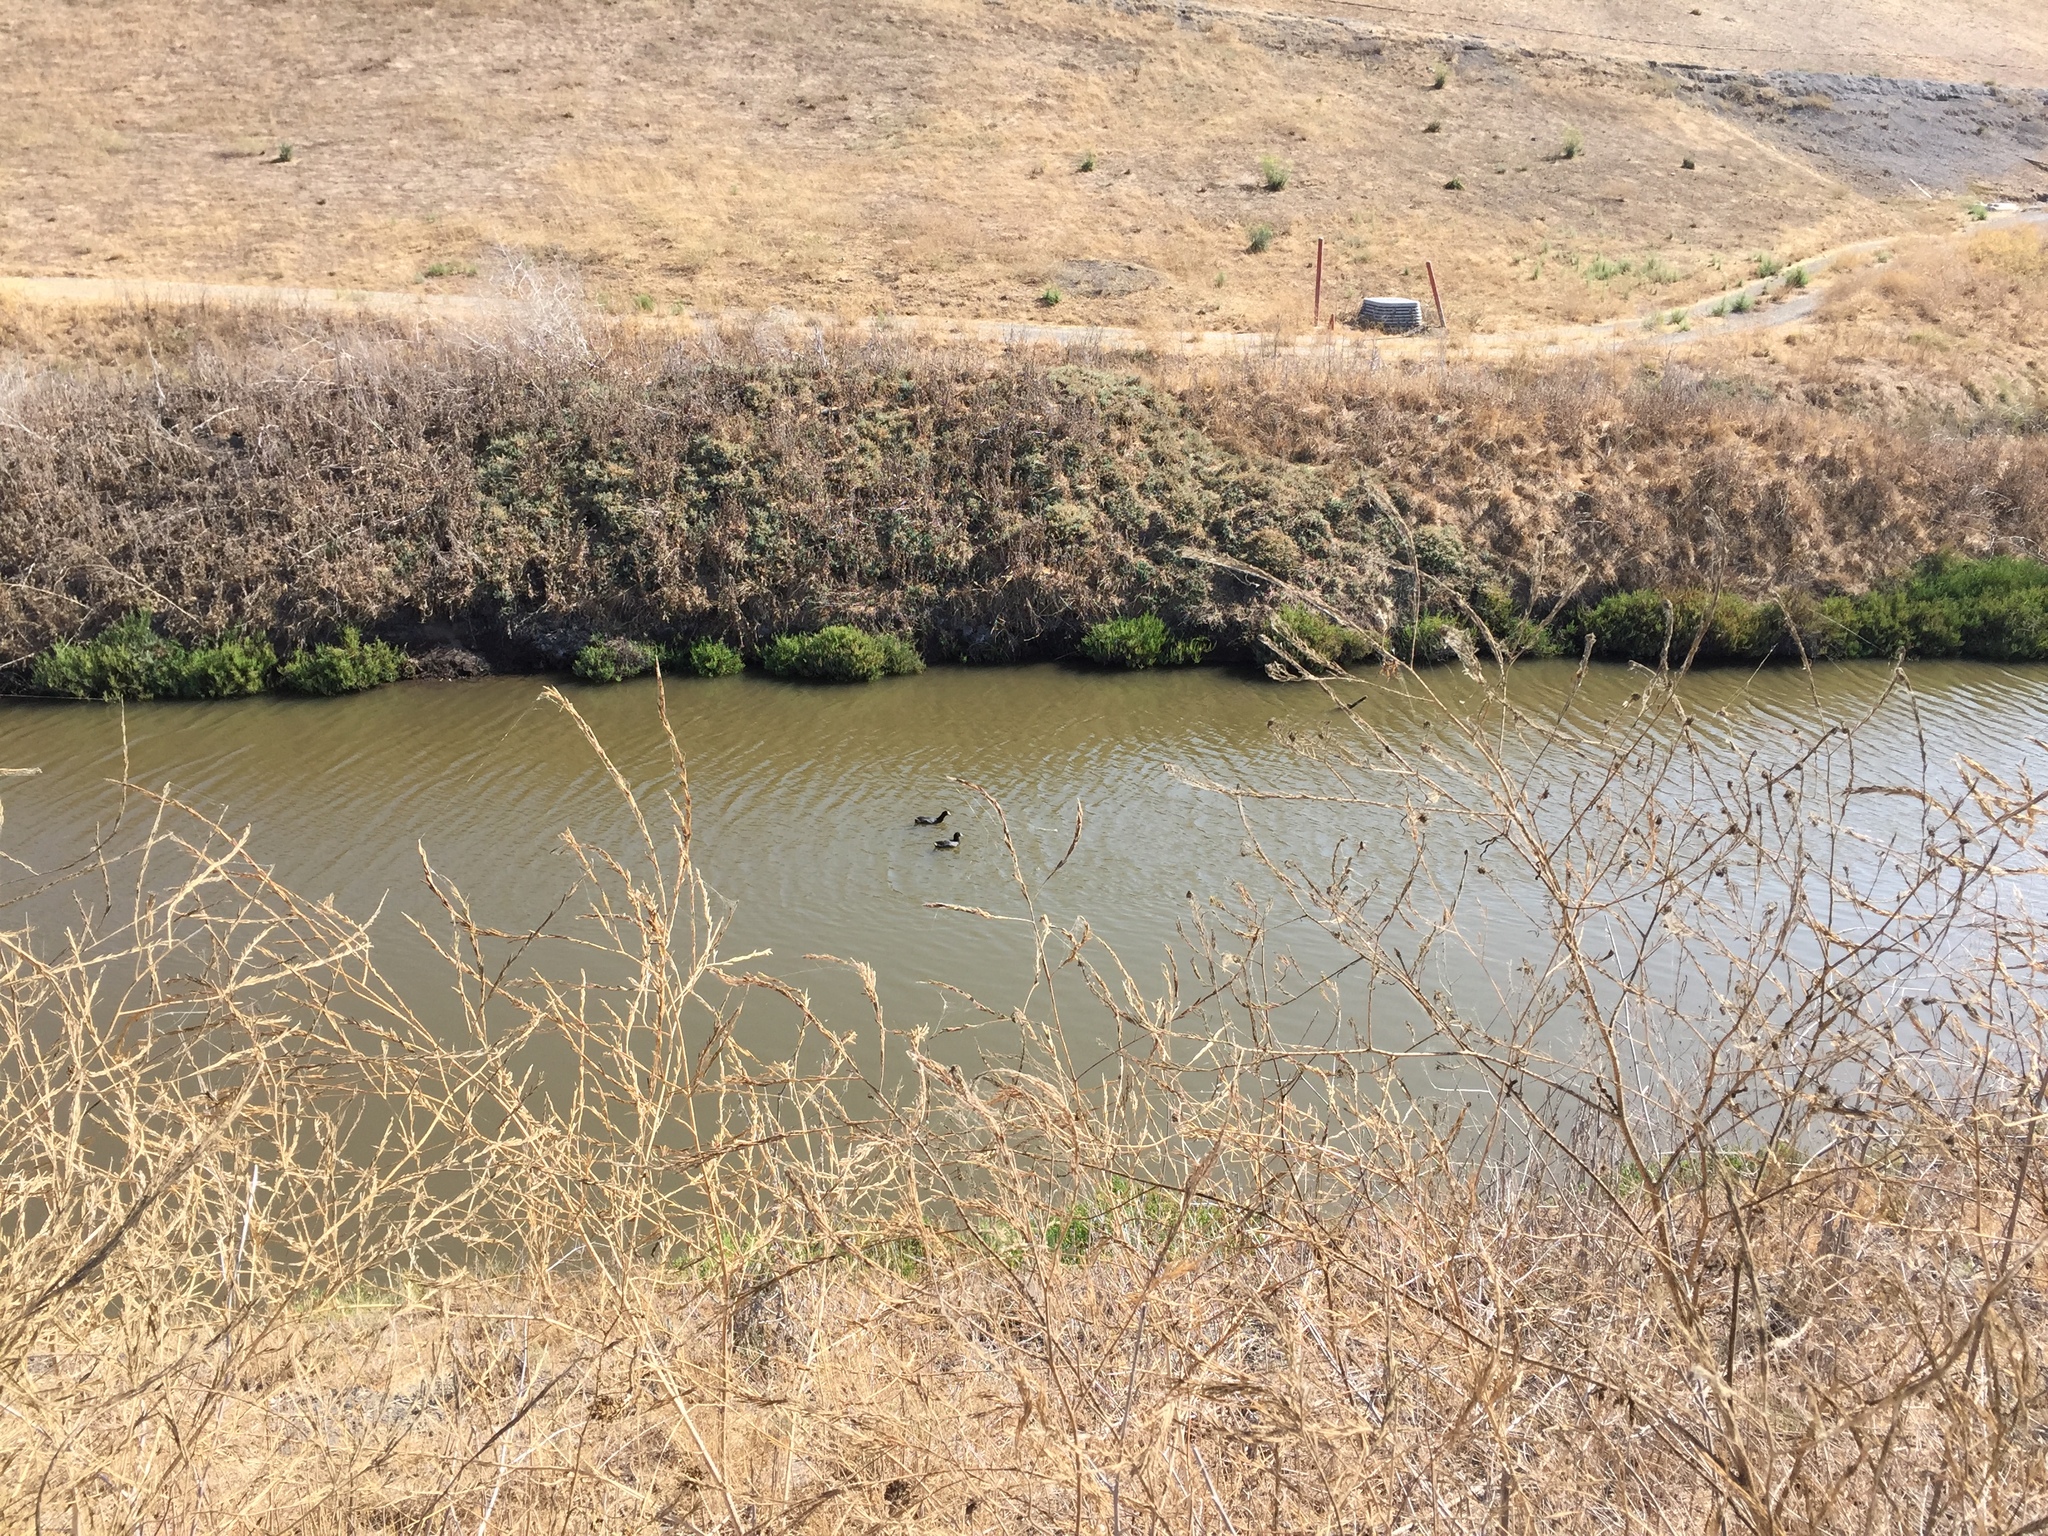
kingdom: Animalia
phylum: Chordata
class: Aves
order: Gruiformes
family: Rallidae
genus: Fulica
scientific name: Fulica americana
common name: American coot
